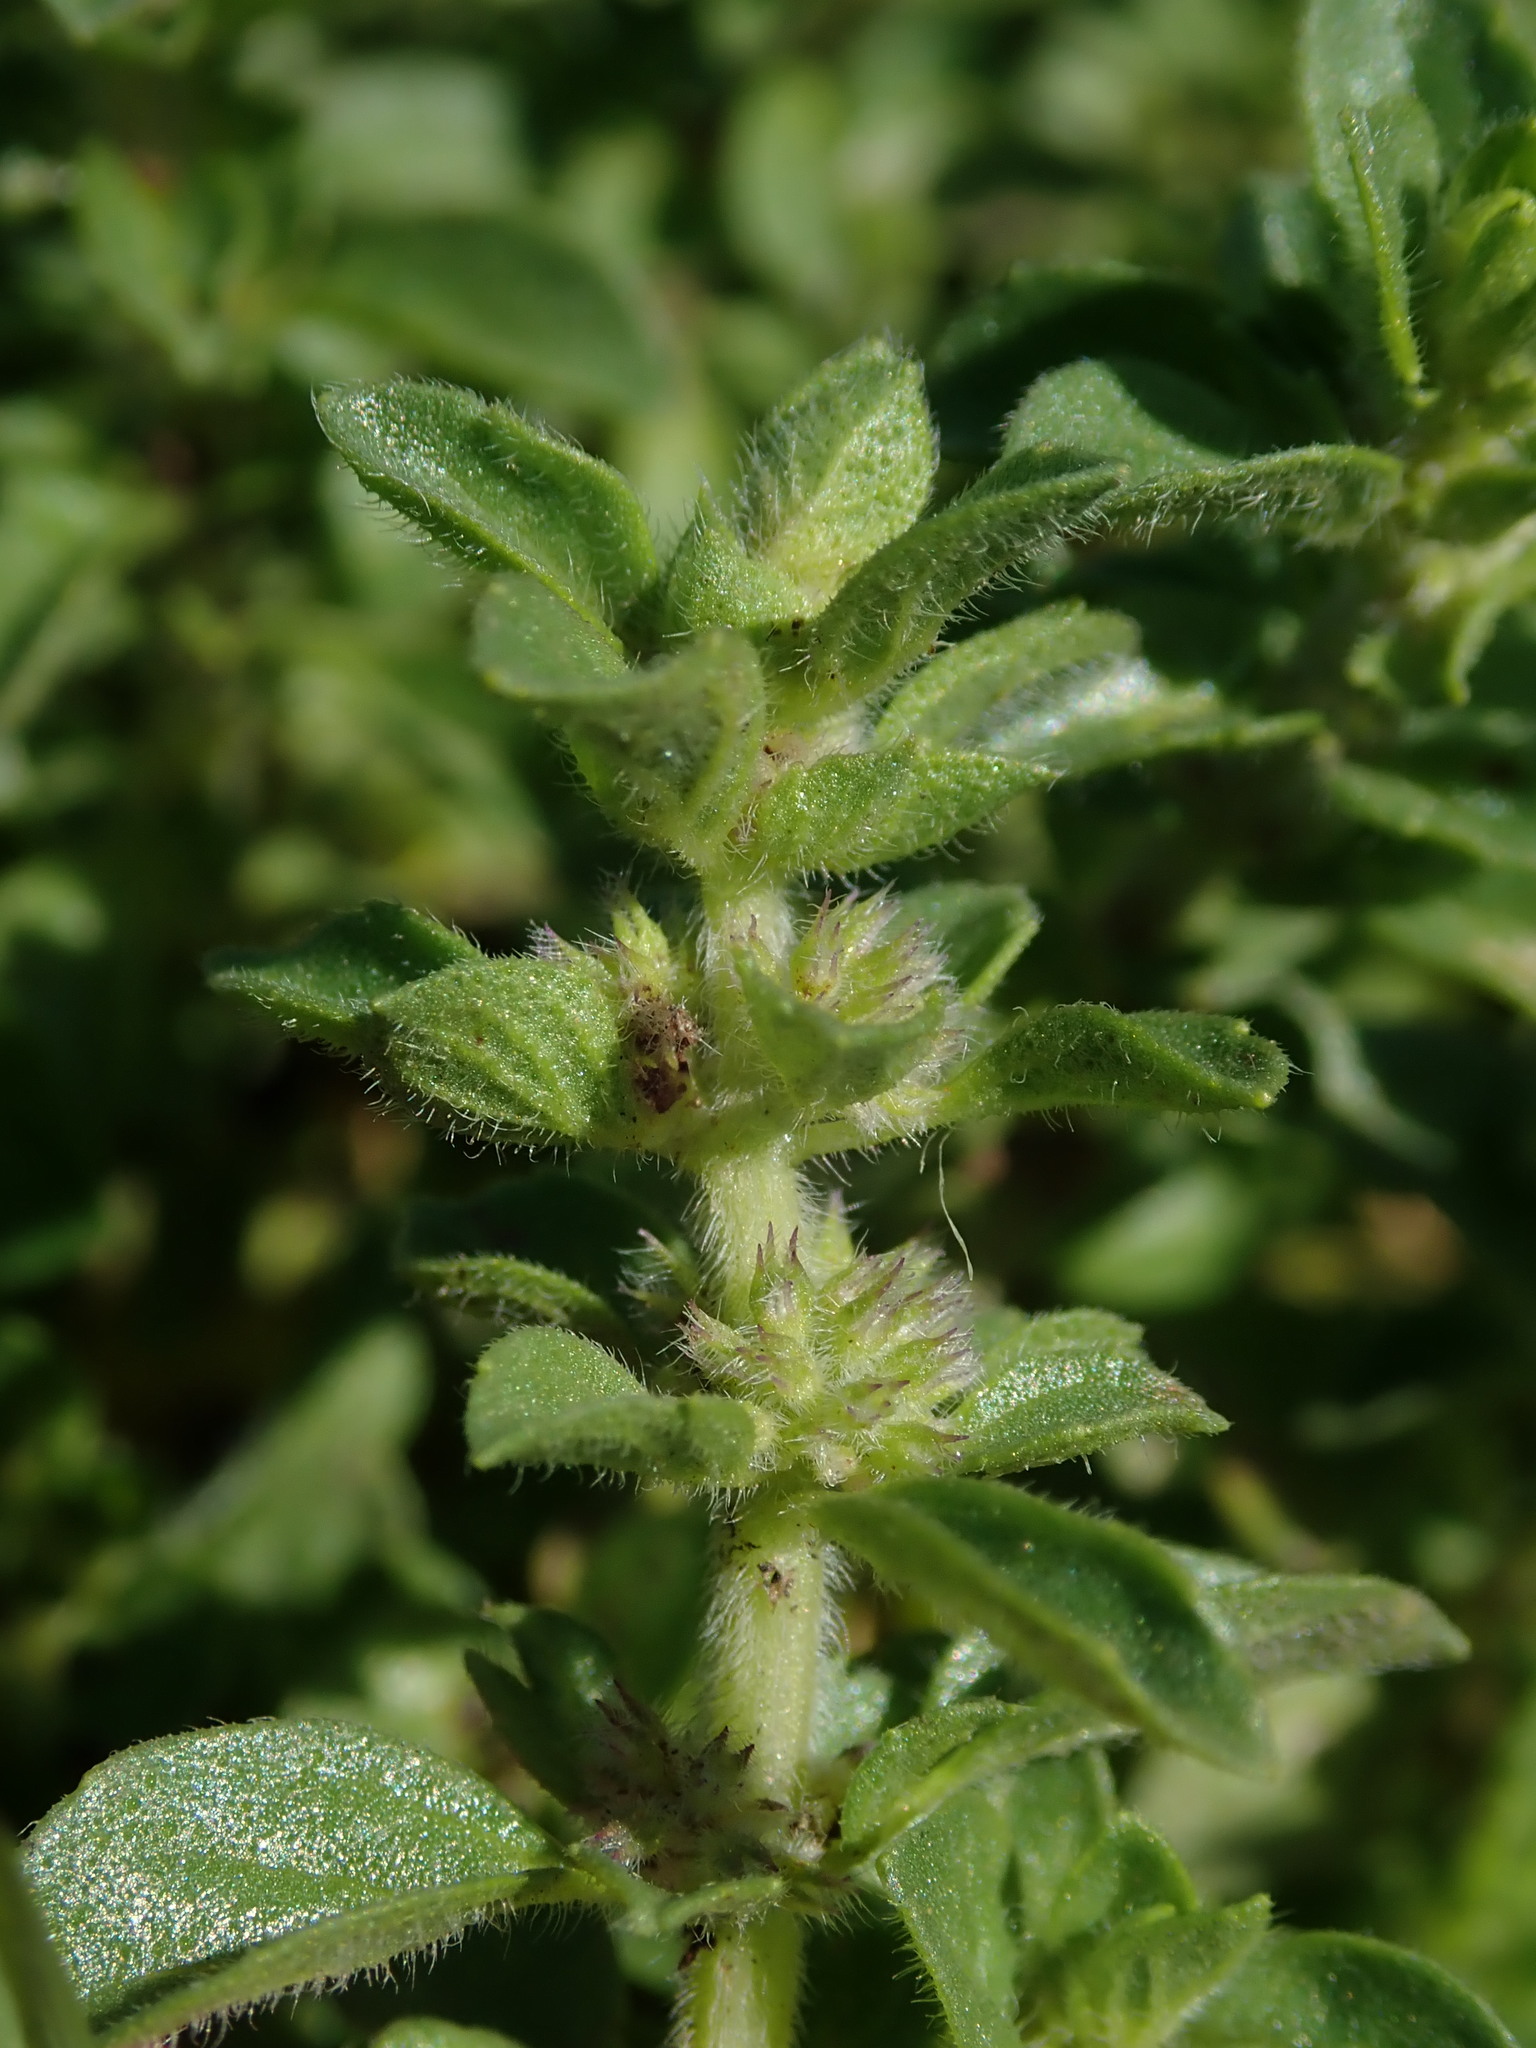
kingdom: Plantae
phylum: Tracheophyta
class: Magnoliopsida
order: Lamiales
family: Lamiaceae
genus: Mentha
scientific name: Mentha pulegium
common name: Pennyroyal
